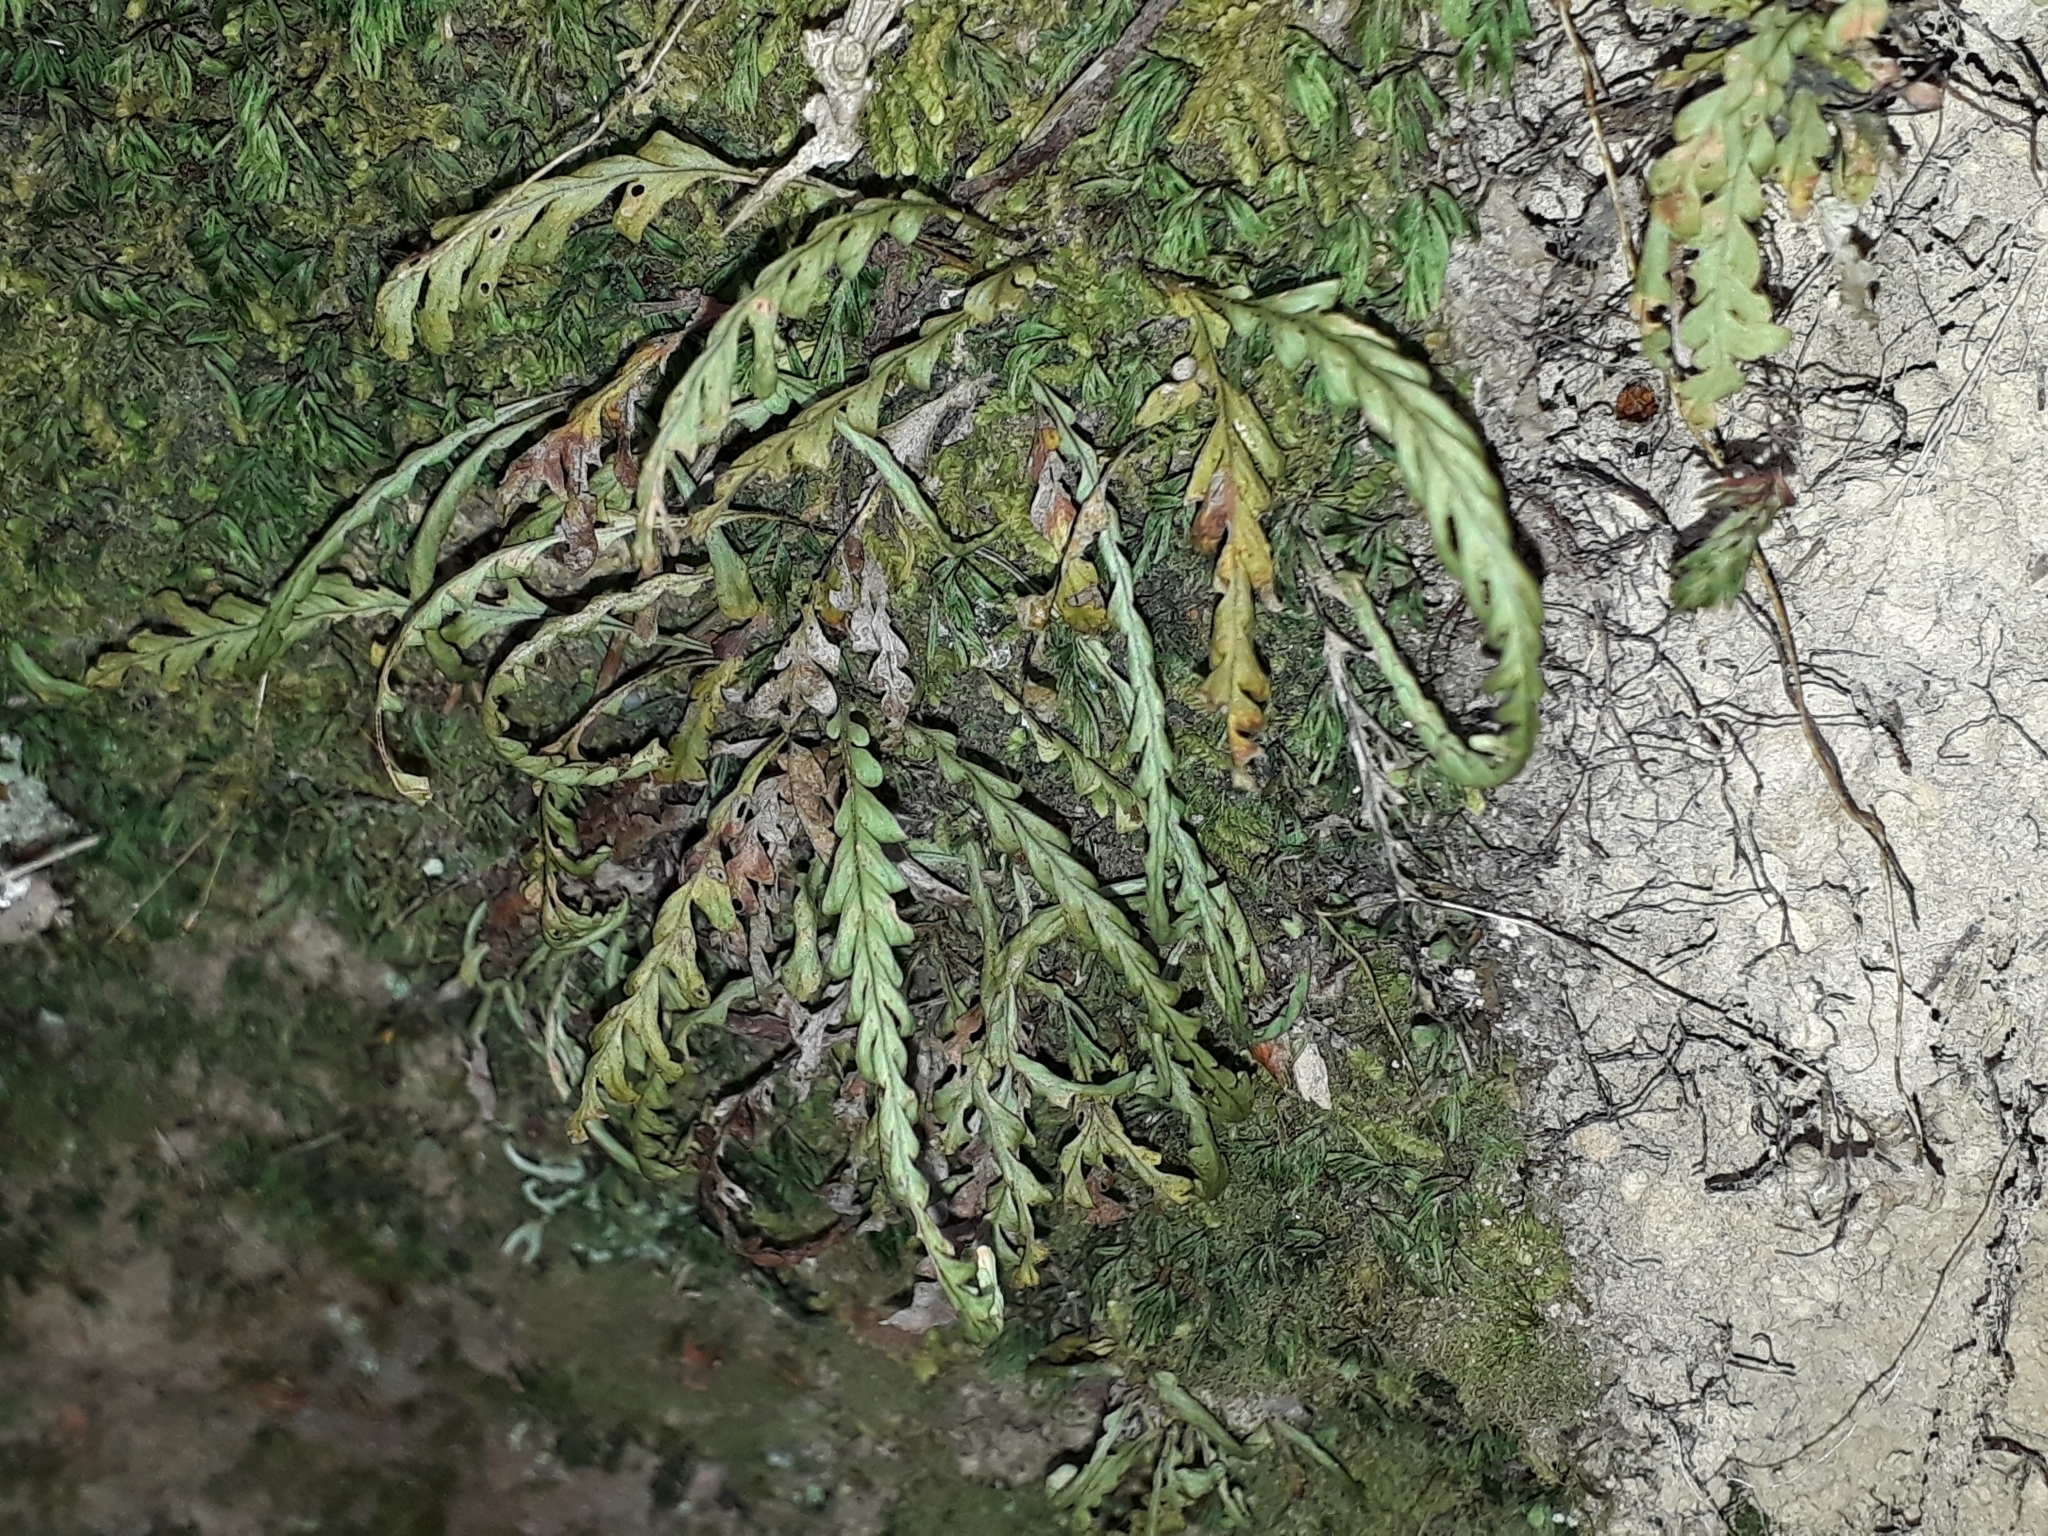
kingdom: Plantae
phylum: Tracheophyta
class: Polypodiopsida
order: Polypodiales
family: Polypodiaceae
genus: Notogrammitis
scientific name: Notogrammitis heterophylla
